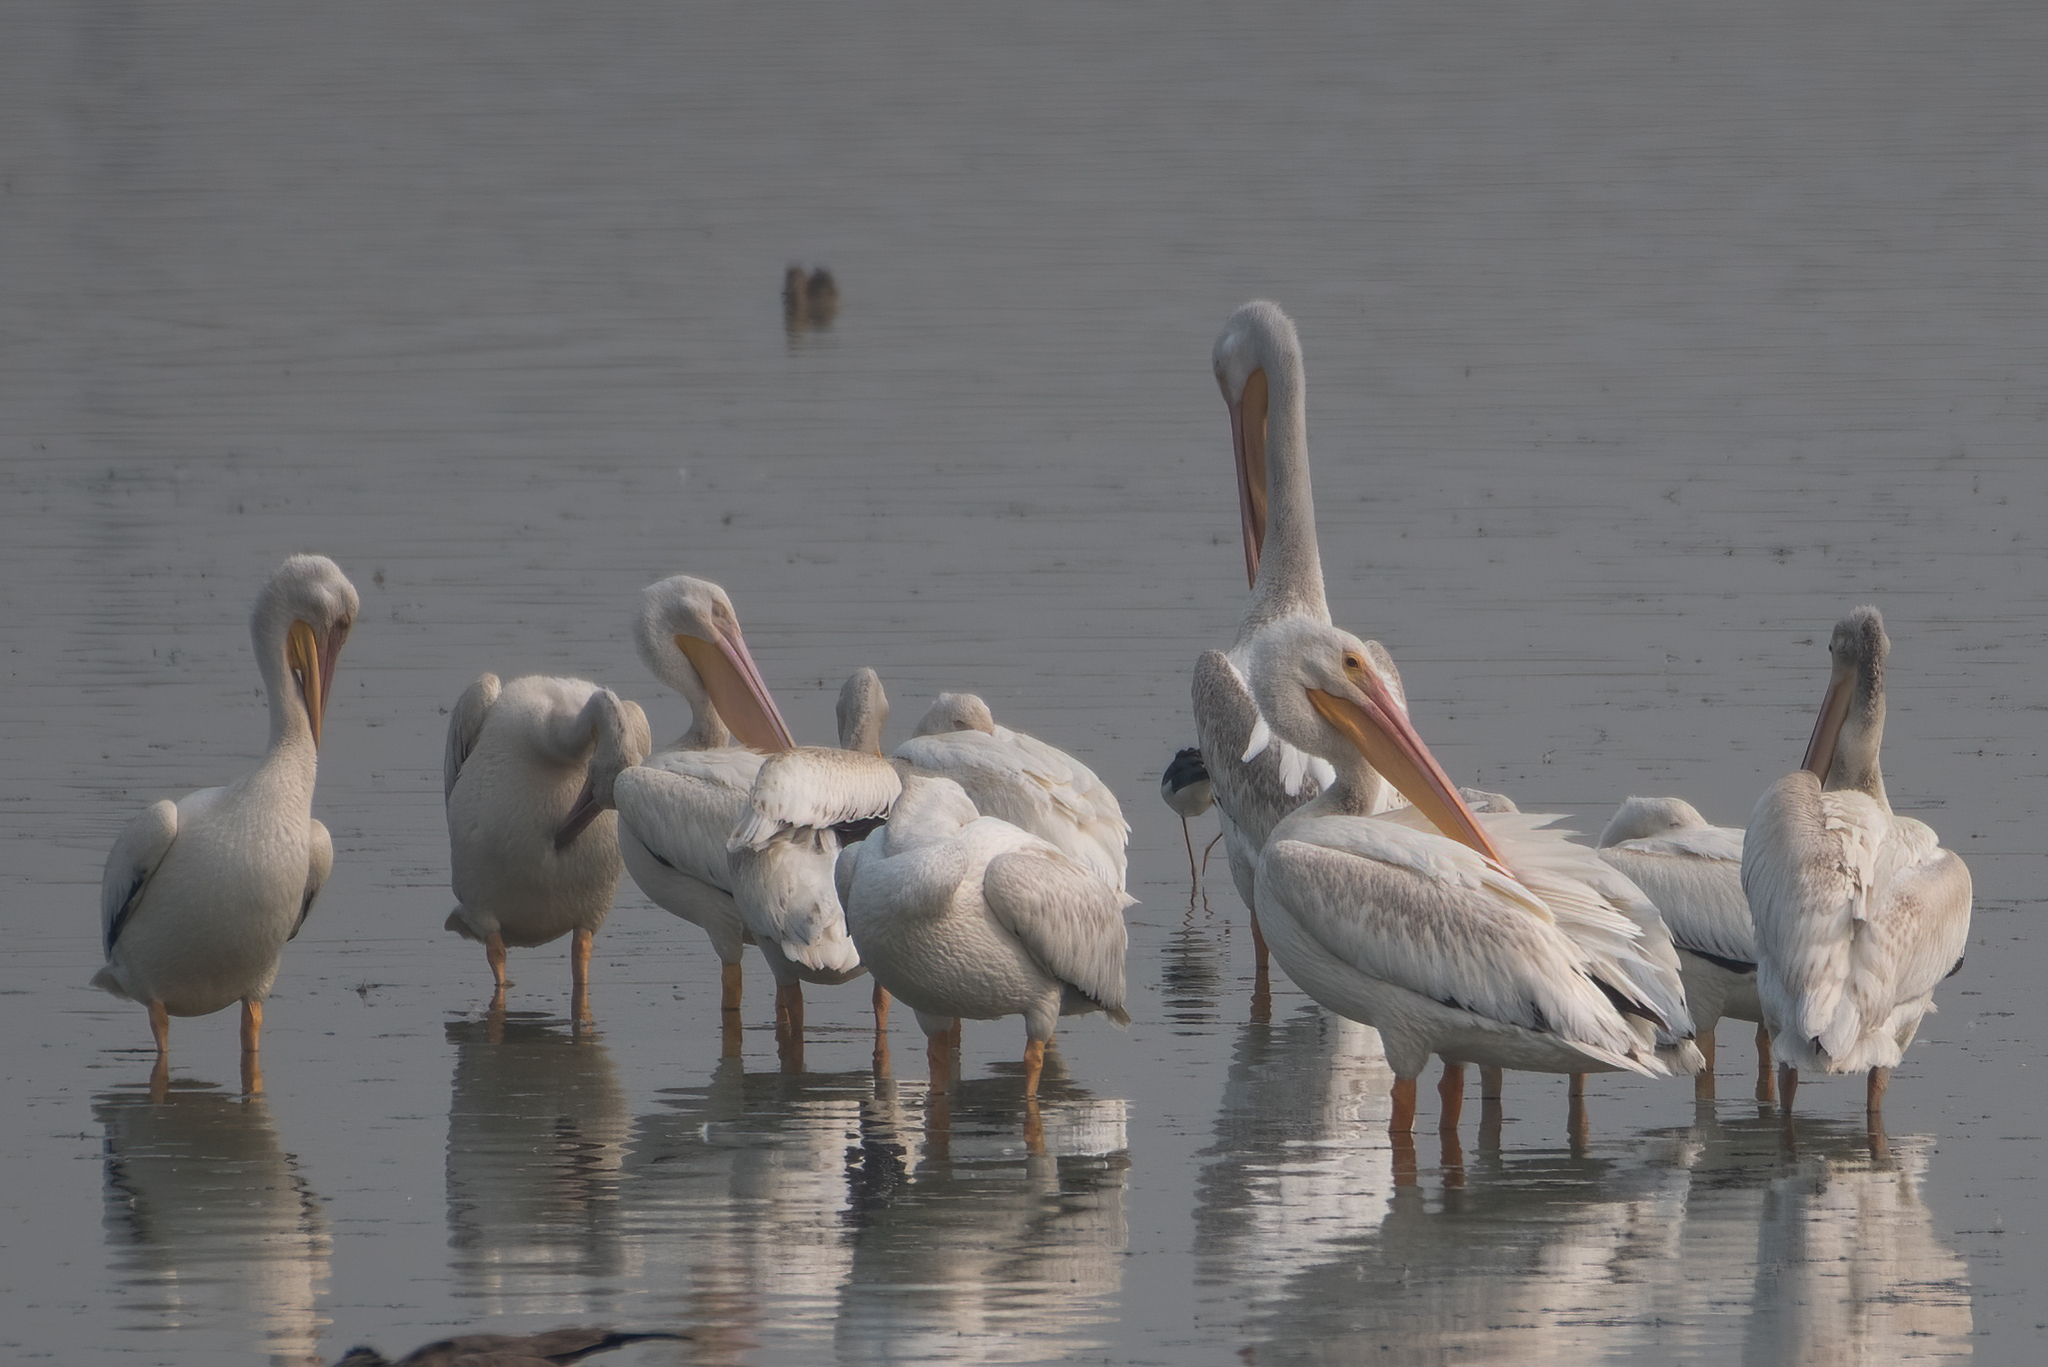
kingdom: Animalia
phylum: Chordata
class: Aves
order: Pelecaniformes
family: Pelecanidae
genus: Pelecanus
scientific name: Pelecanus erythrorhynchos
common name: American white pelican
